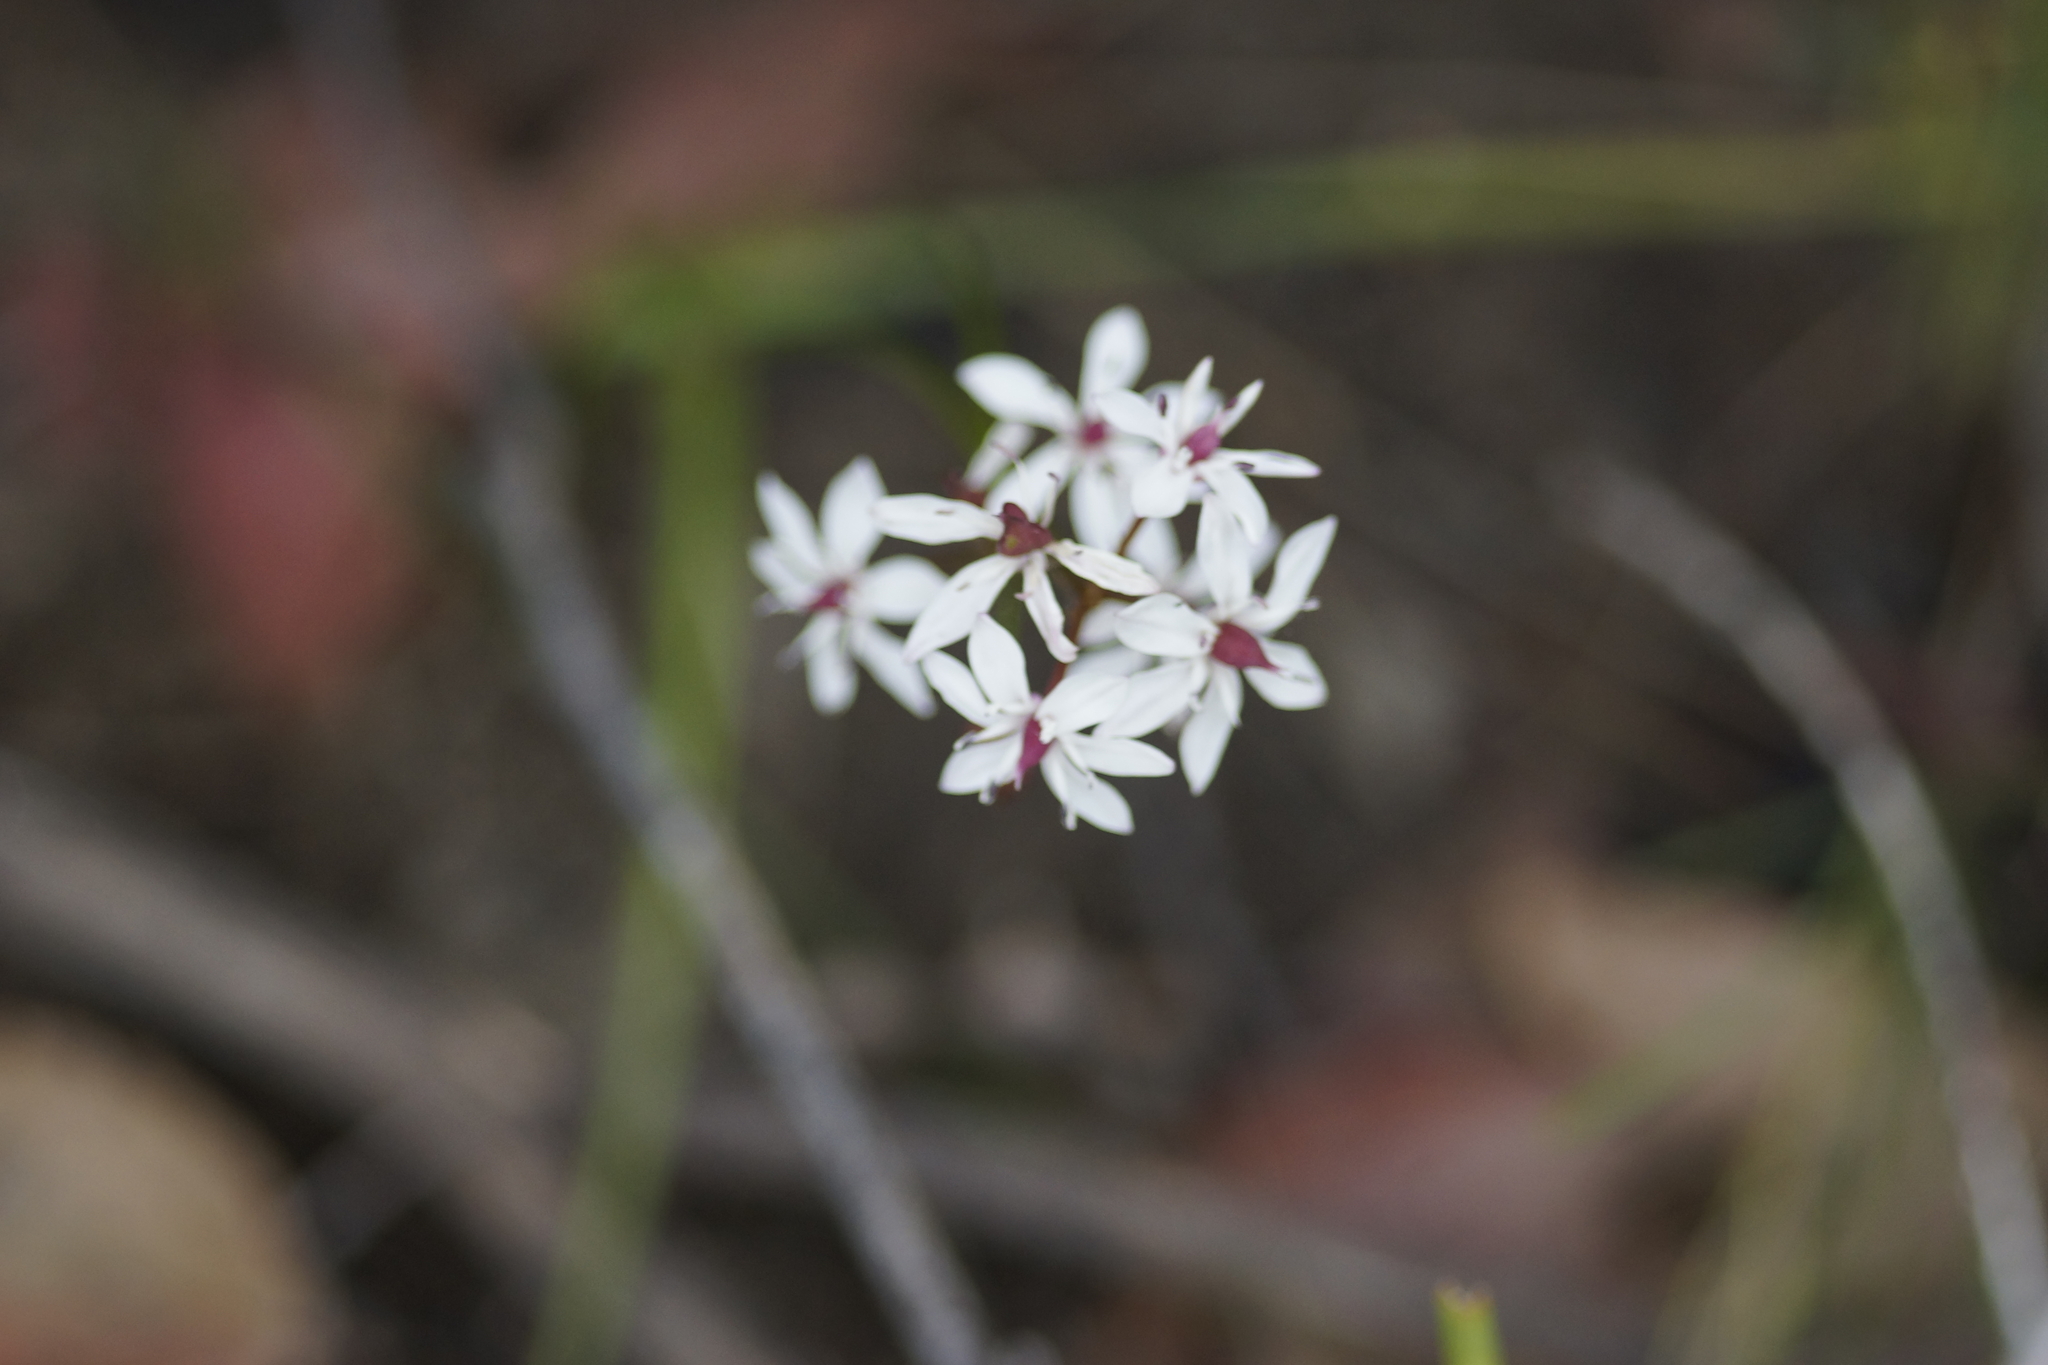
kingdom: Plantae
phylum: Tracheophyta
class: Liliopsida
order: Liliales
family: Colchicaceae
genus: Burchardia
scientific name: Burchardia umbellata
